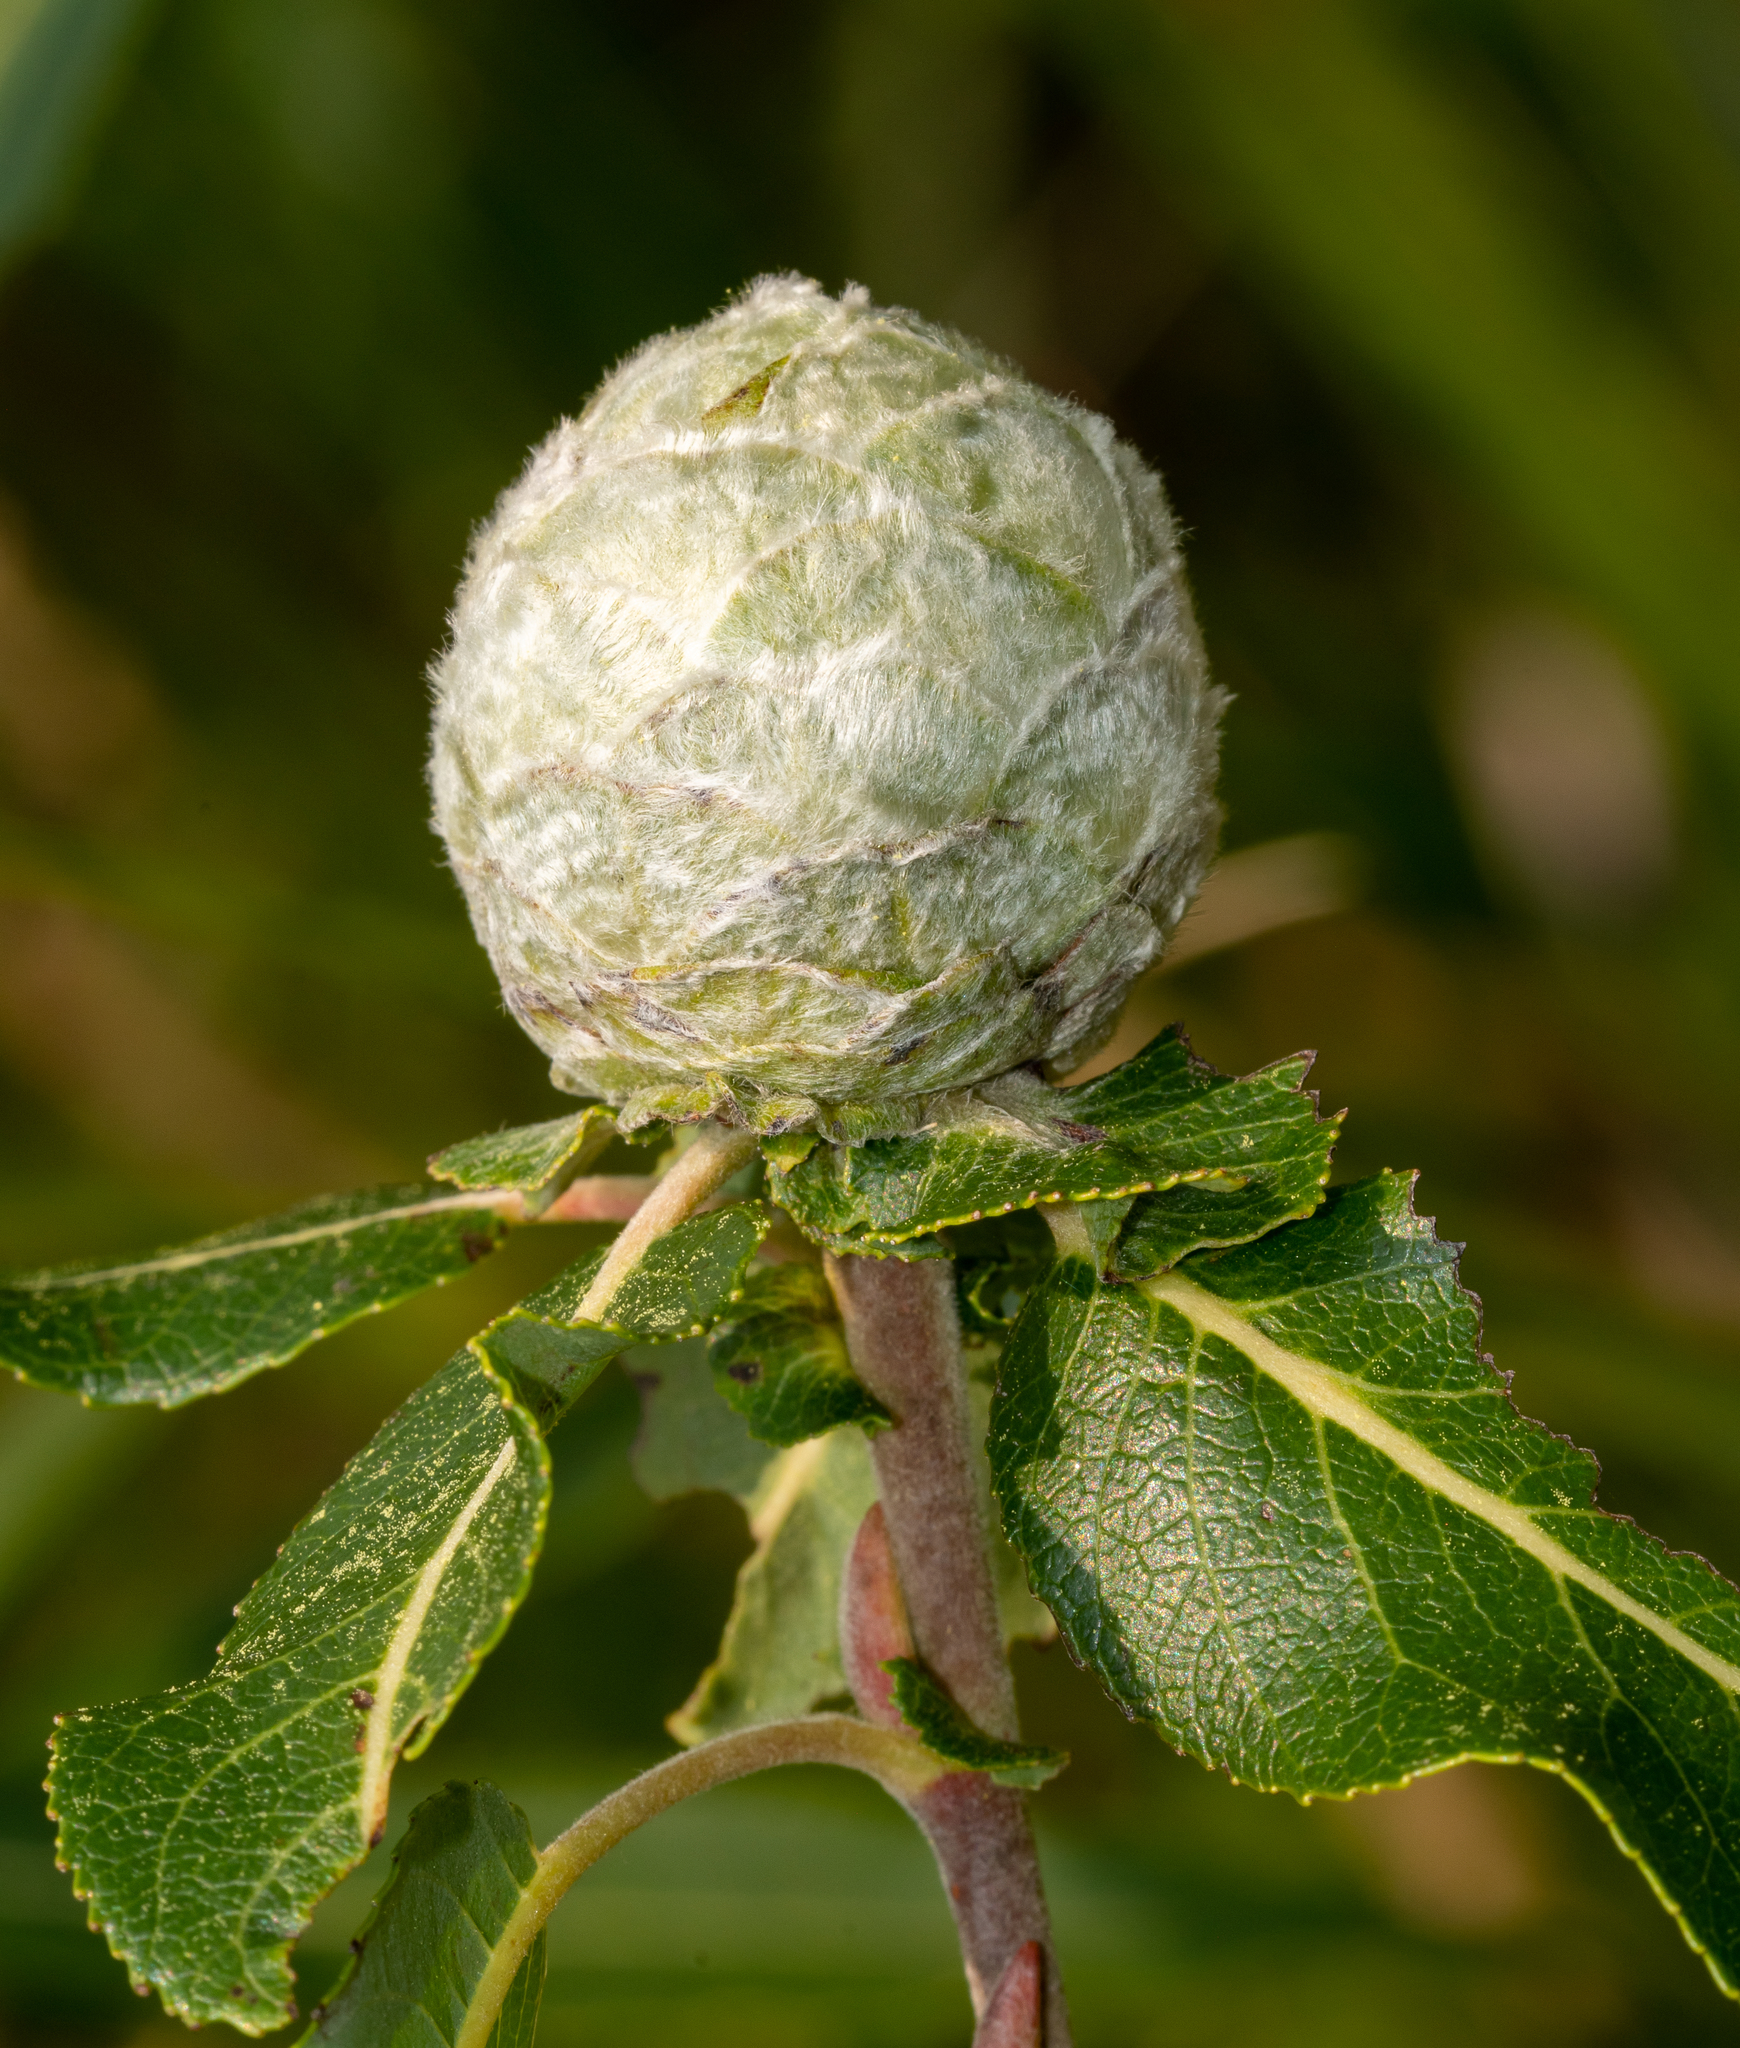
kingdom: Animalia
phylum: Arthropoda
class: Insecta
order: Diptera
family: Cecidomyiidae
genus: Rabdophaga
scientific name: Rabdophaga strobiloides
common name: Willow pinecone gall midge
